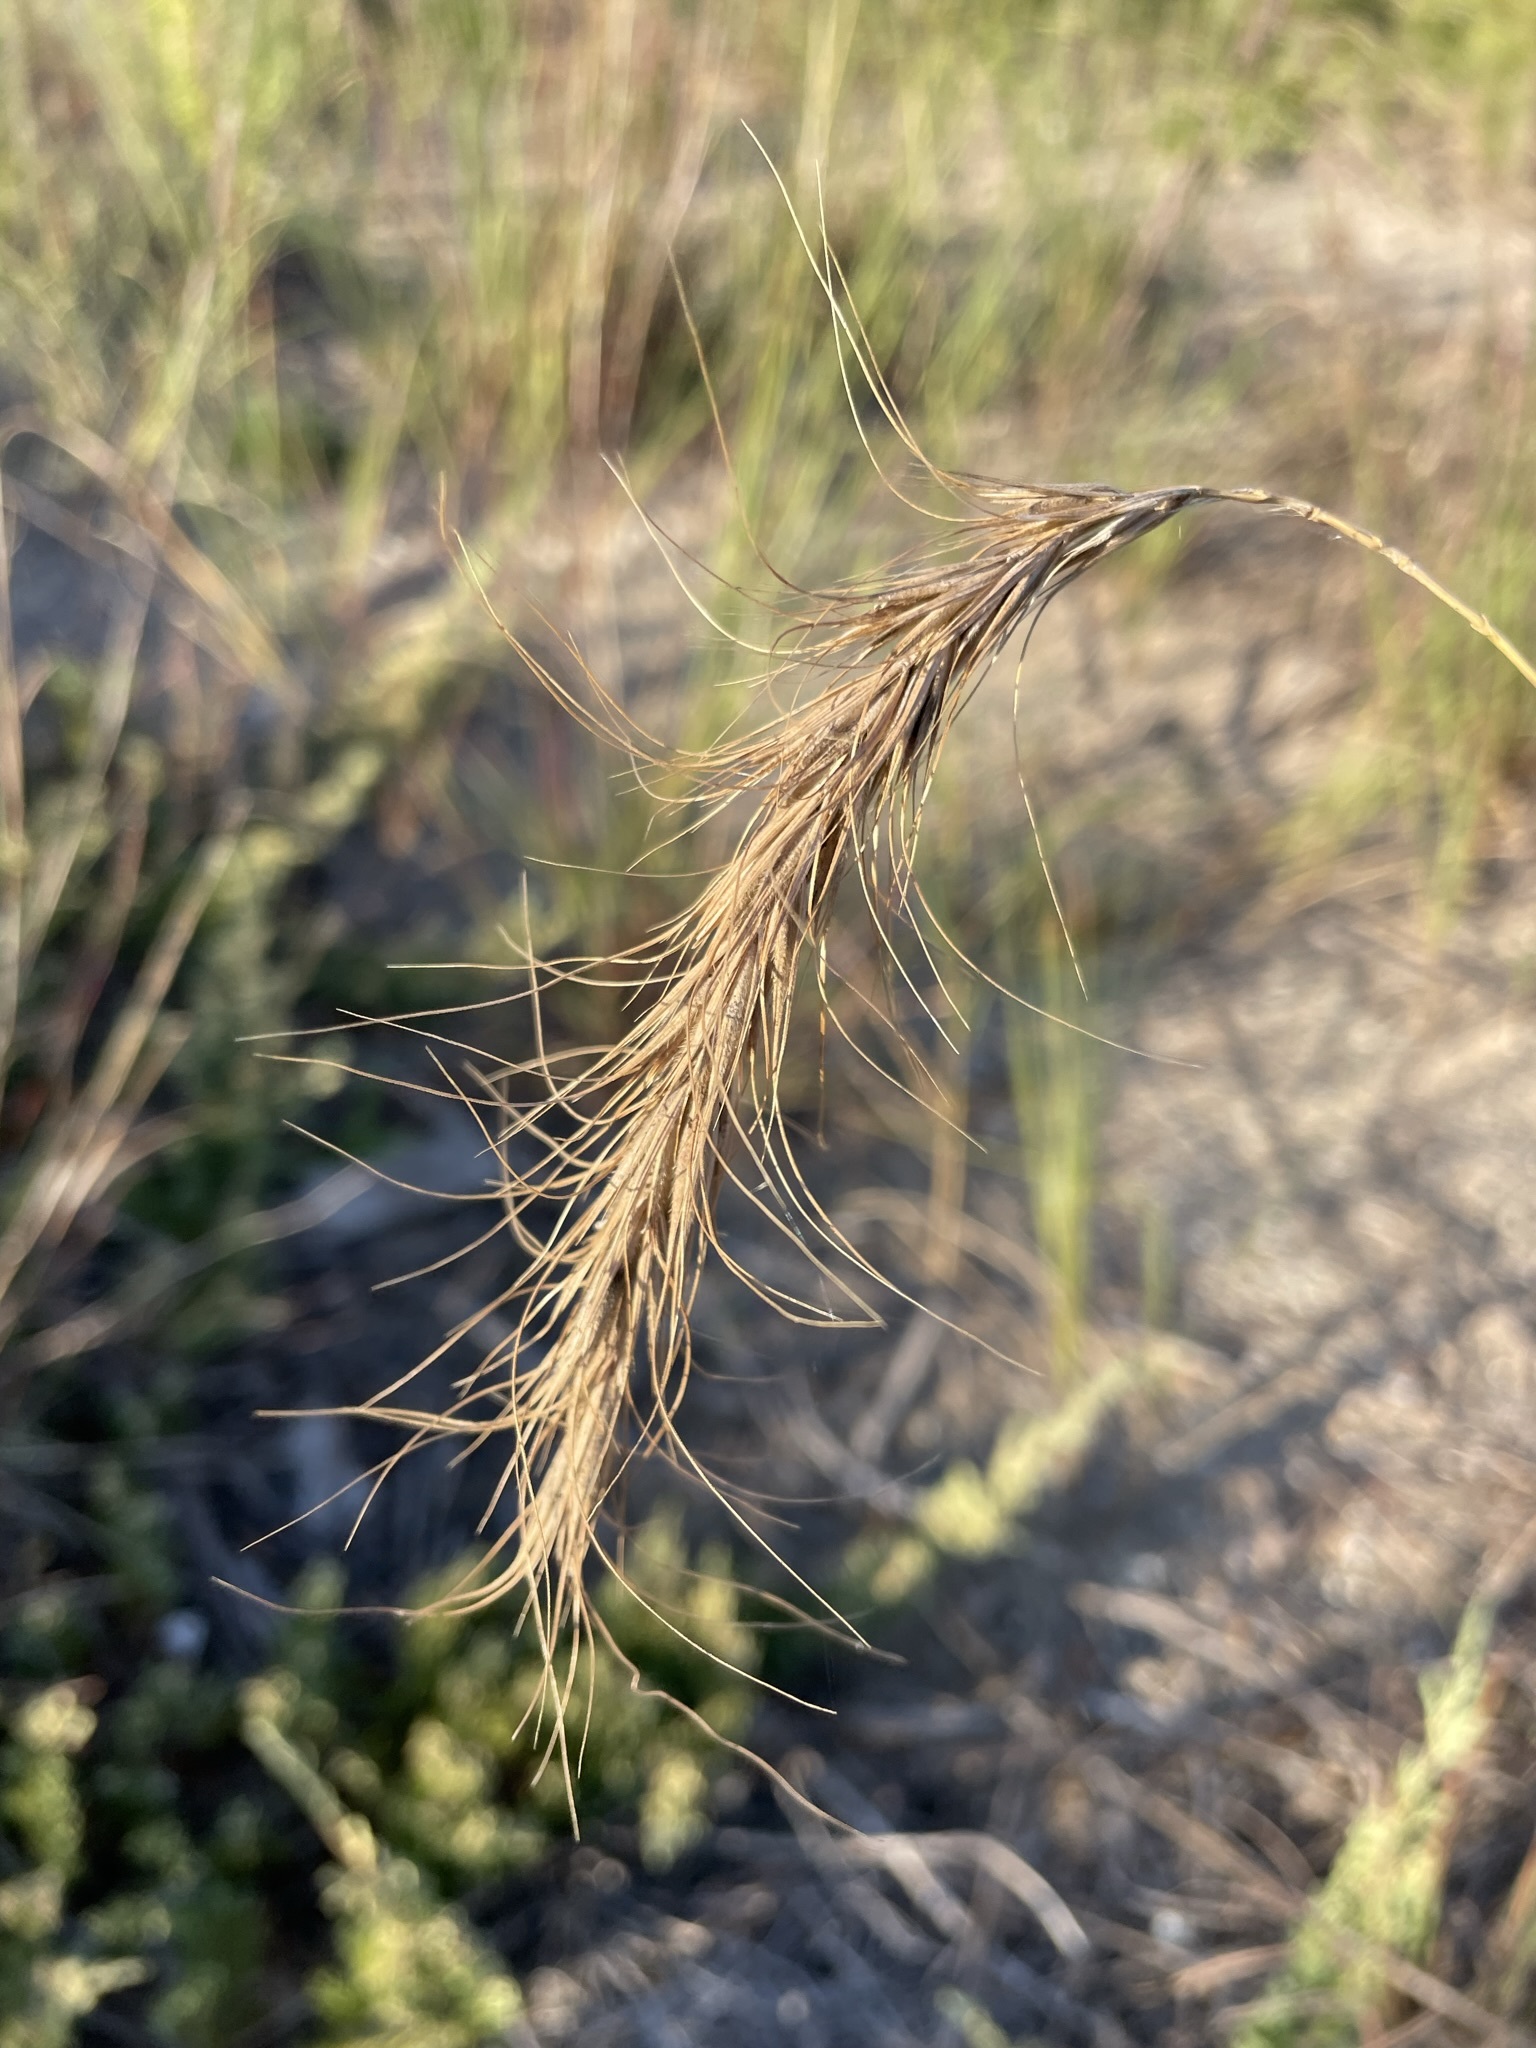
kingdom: Plantae
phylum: Tracheophyta
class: Liliopsida
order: Poales
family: Poaceae
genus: Elymus
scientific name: Elymus canadensis
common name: Canada wild rye
